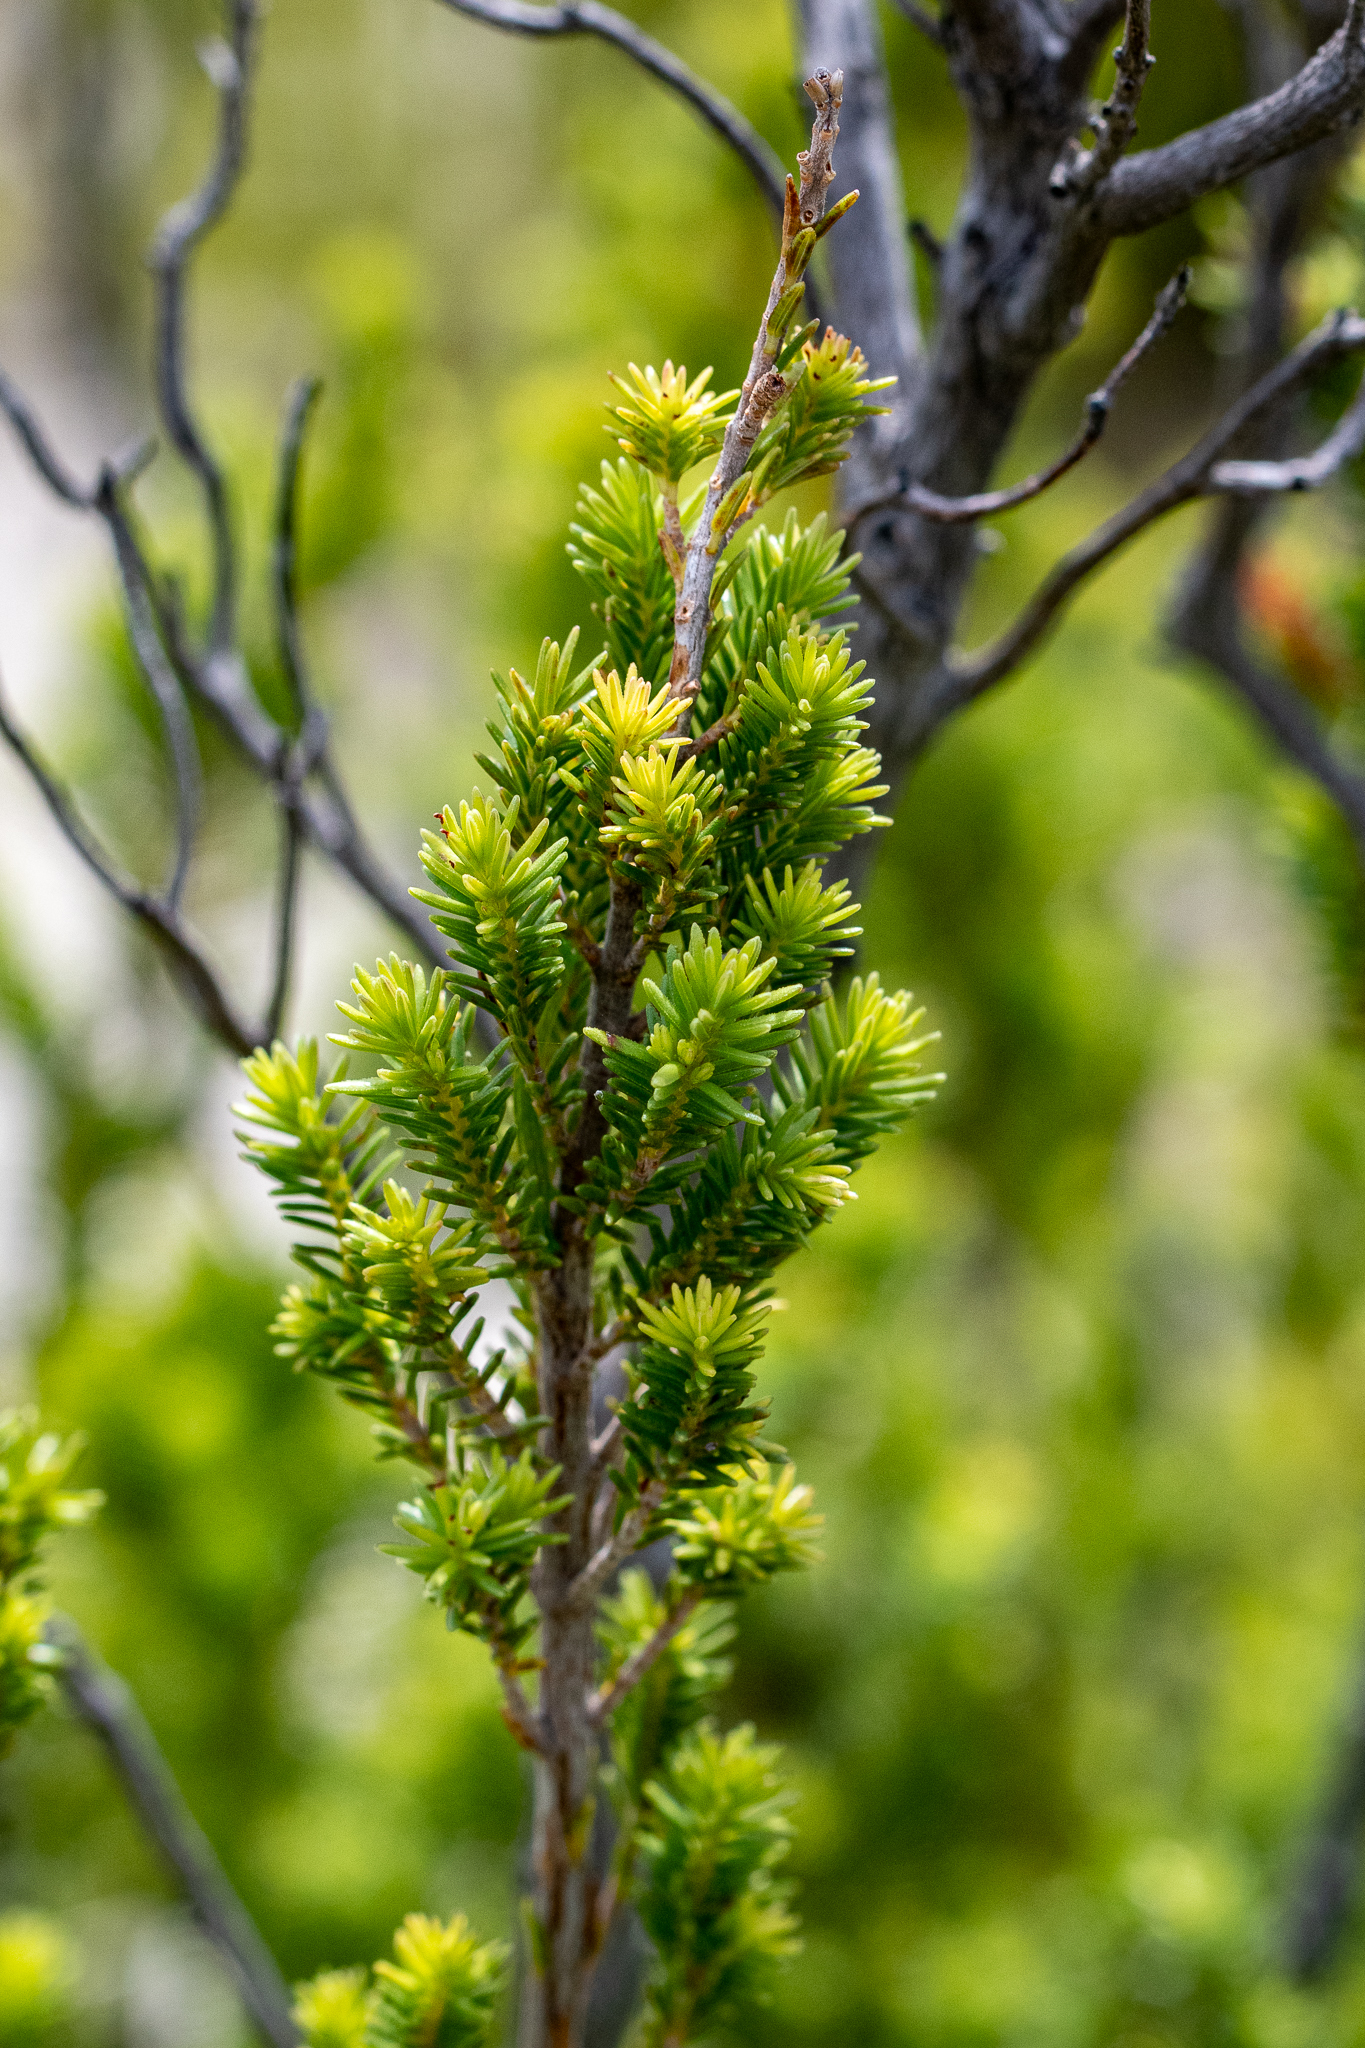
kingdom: Plantae
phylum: Tracheophyta
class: Magnoliopsida
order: Ericales
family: Ericaceae
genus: Erica
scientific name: Erica discolor
